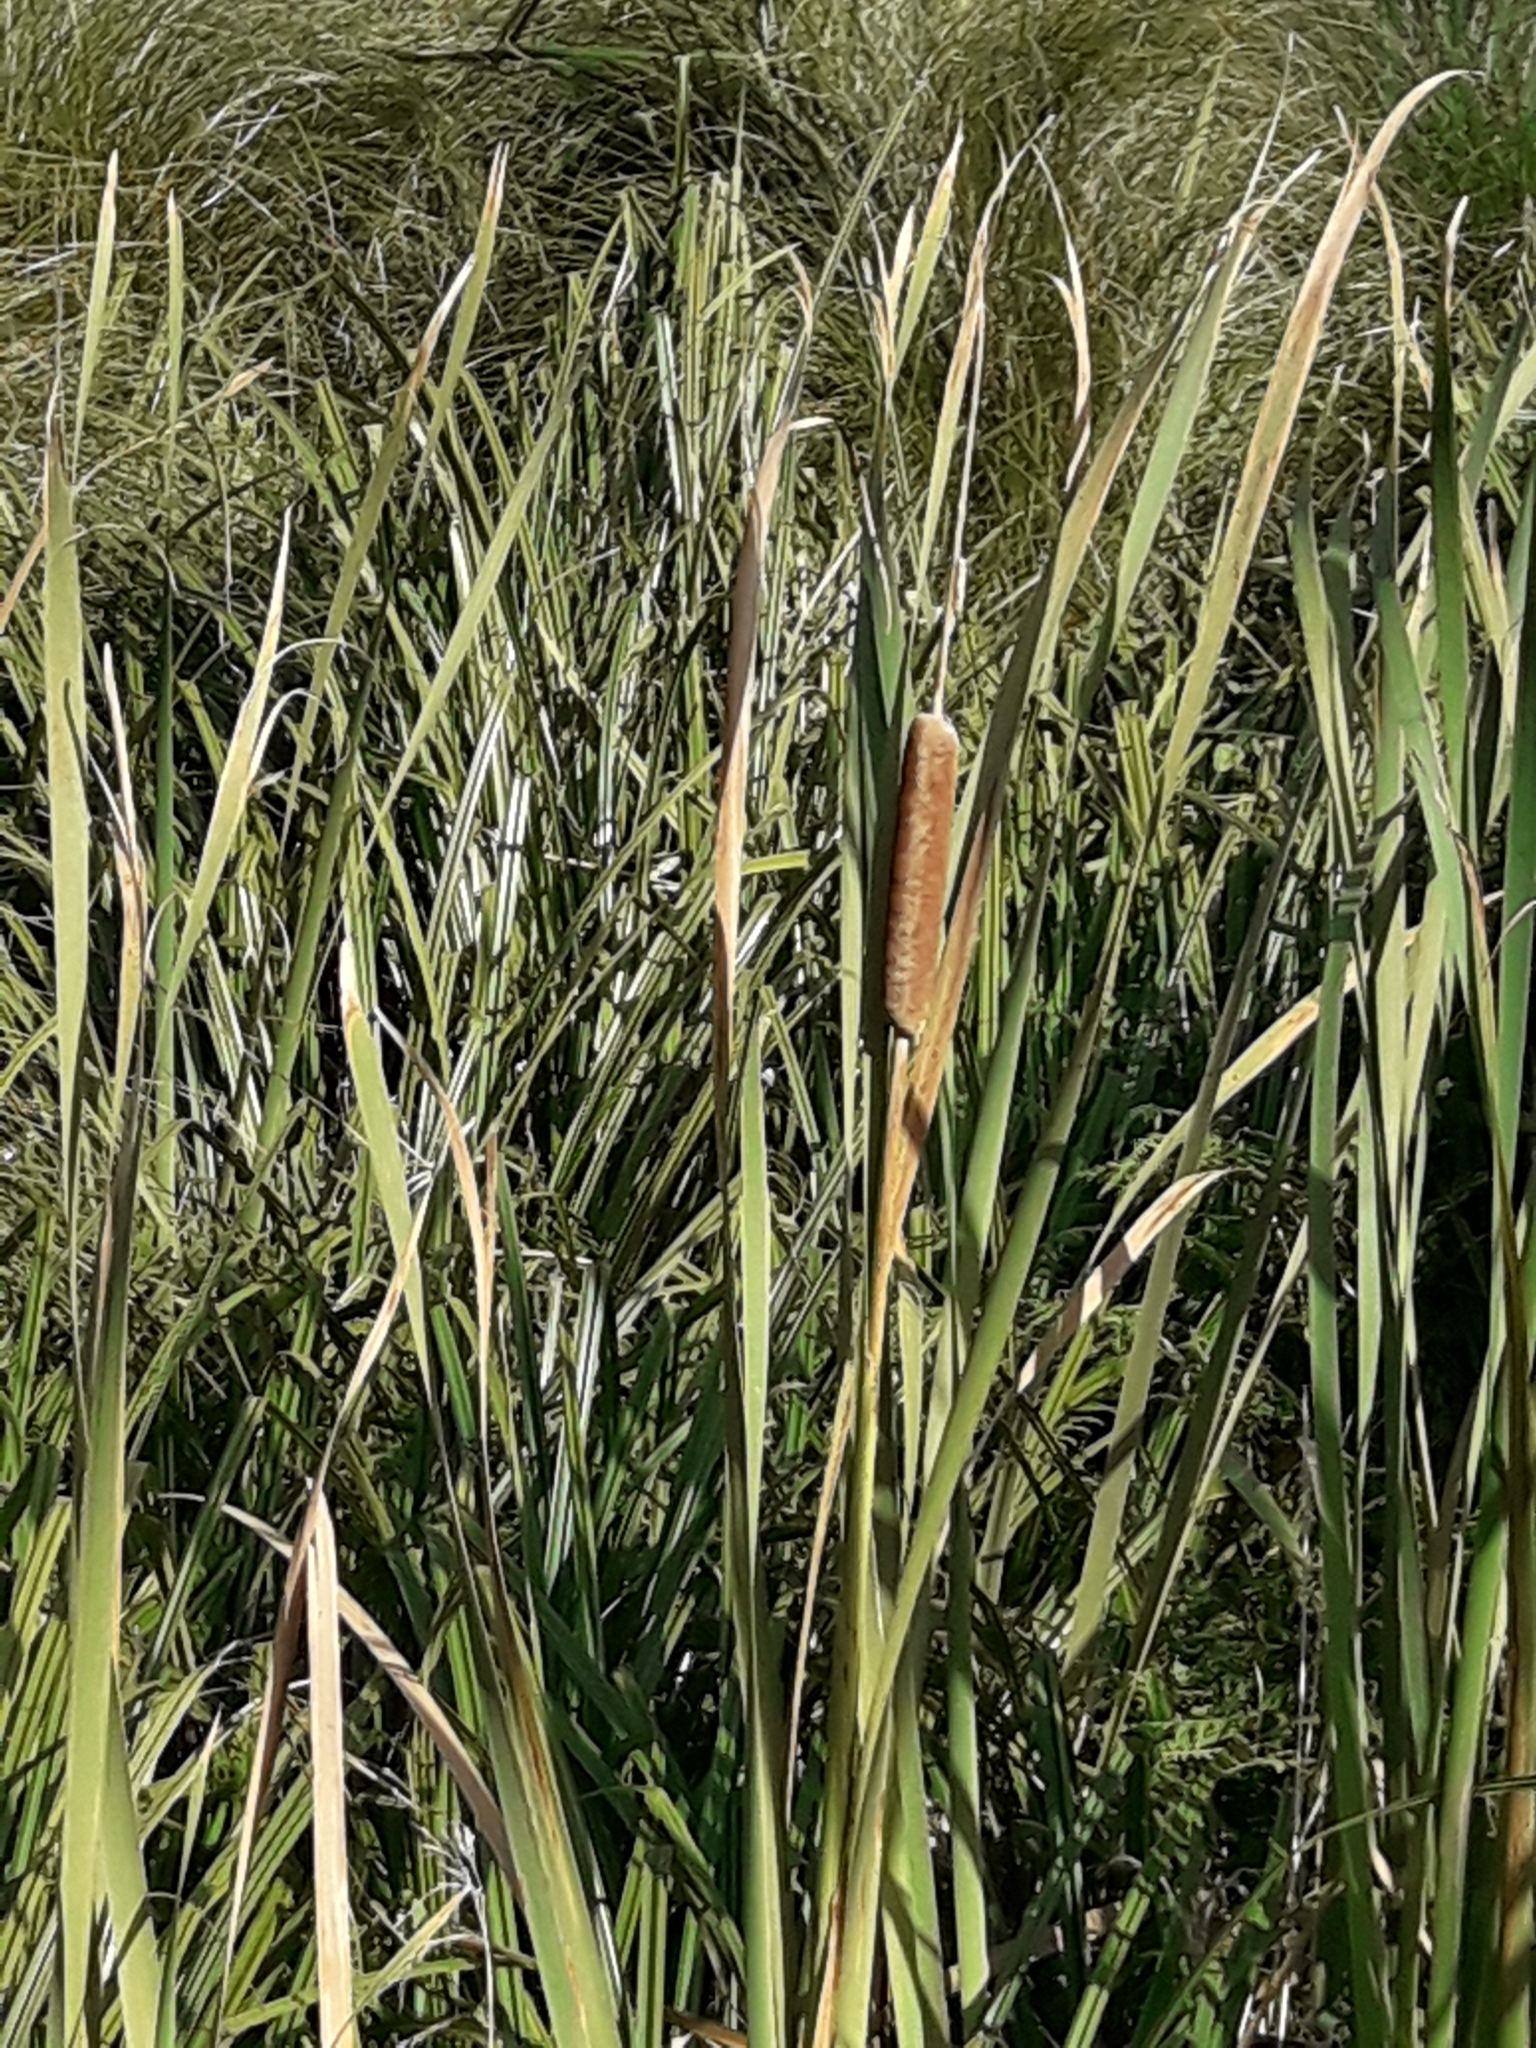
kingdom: Plantae
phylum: Tracheophyta
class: Liliopsida
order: Poales
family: Typhaceae
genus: Typha
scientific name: Typha orientalis
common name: Bullrush
